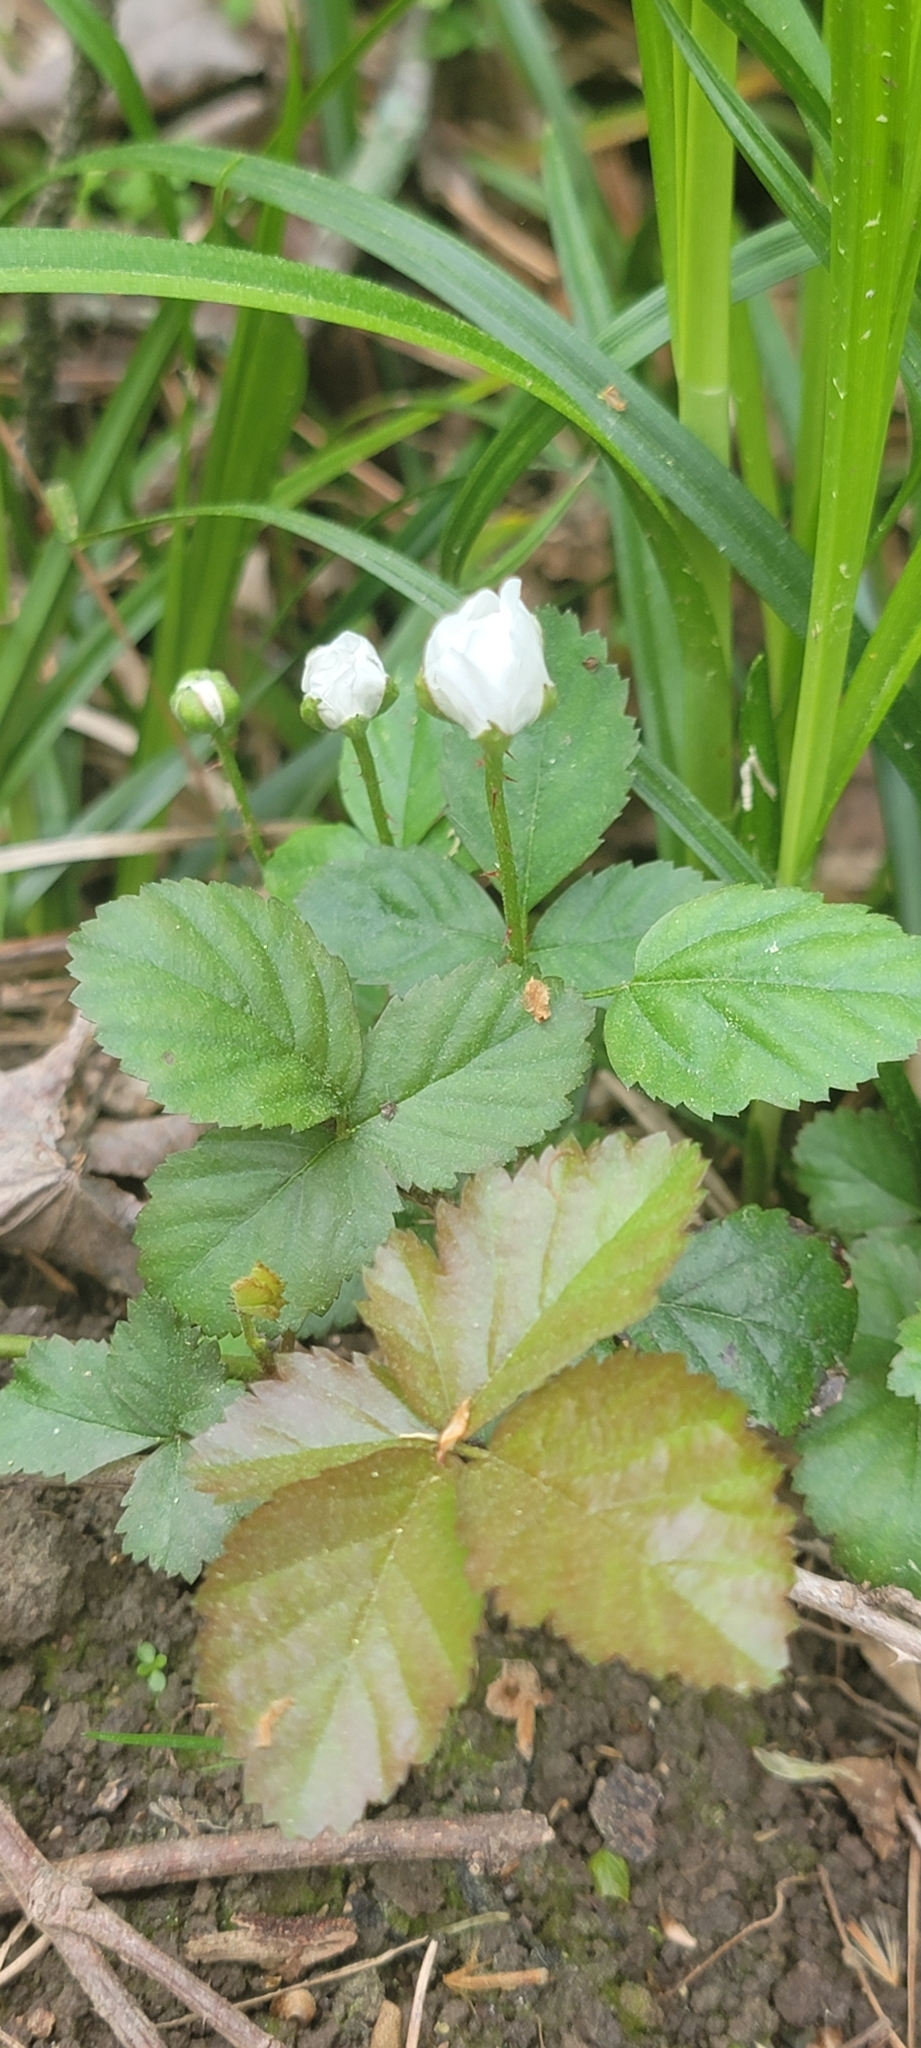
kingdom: Plantae
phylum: Tracheophyta
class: Magnoliopsida
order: Rosales
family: Rosaceae
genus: Rubus
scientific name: Rubus trivialis
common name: Southern dewberry
